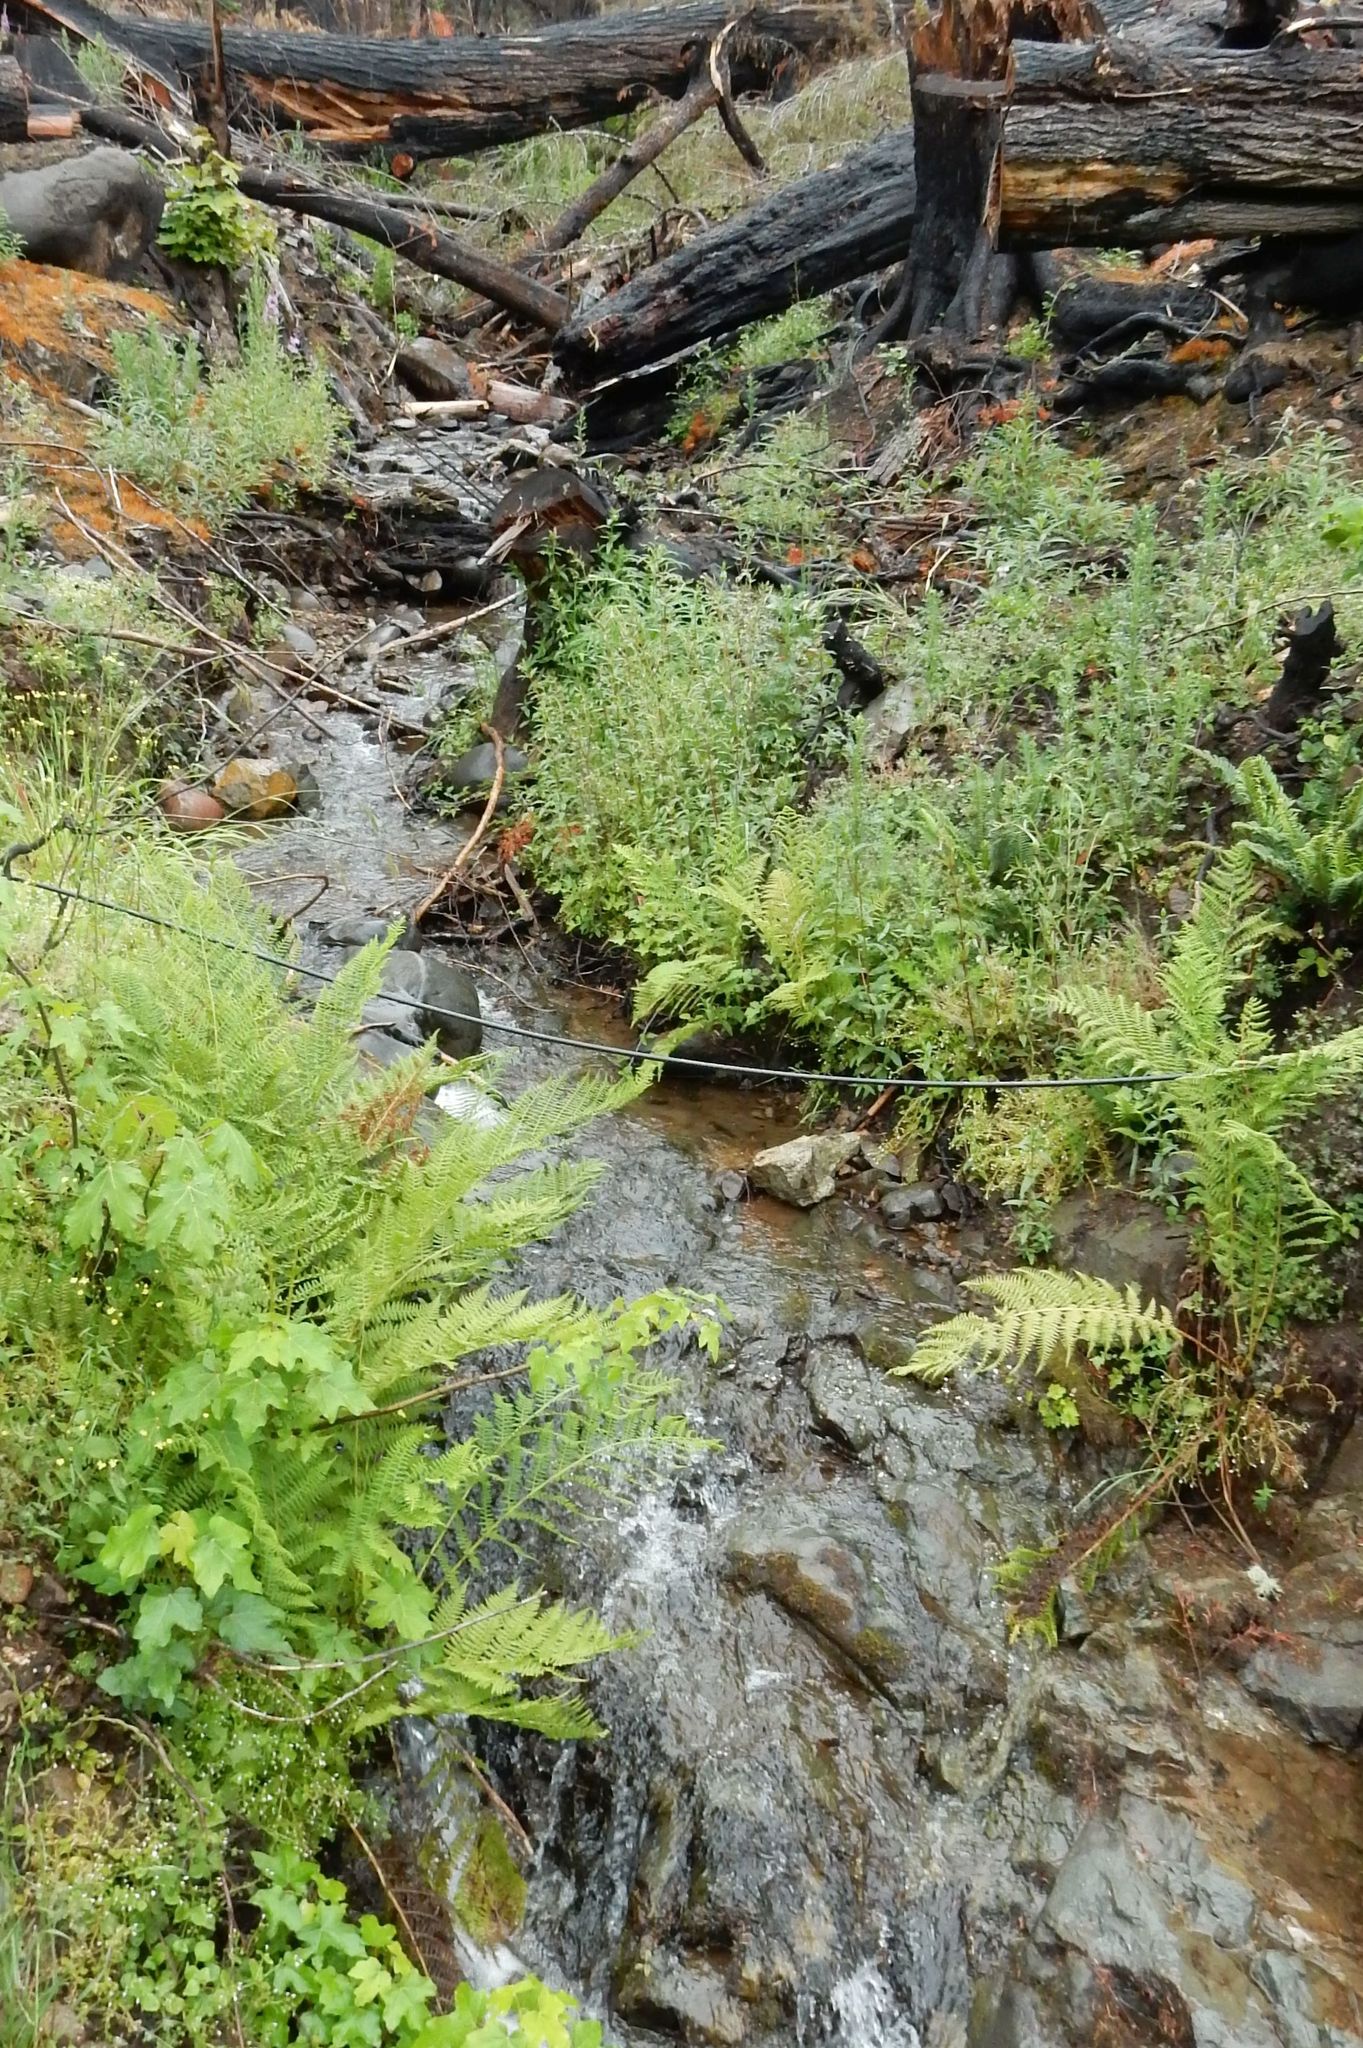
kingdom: Plantae
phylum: Tracheophyta
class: Polypodiopsida
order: Polypodiales
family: Athyriaceae
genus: Athyrium
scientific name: Athyrium cyclosorum
